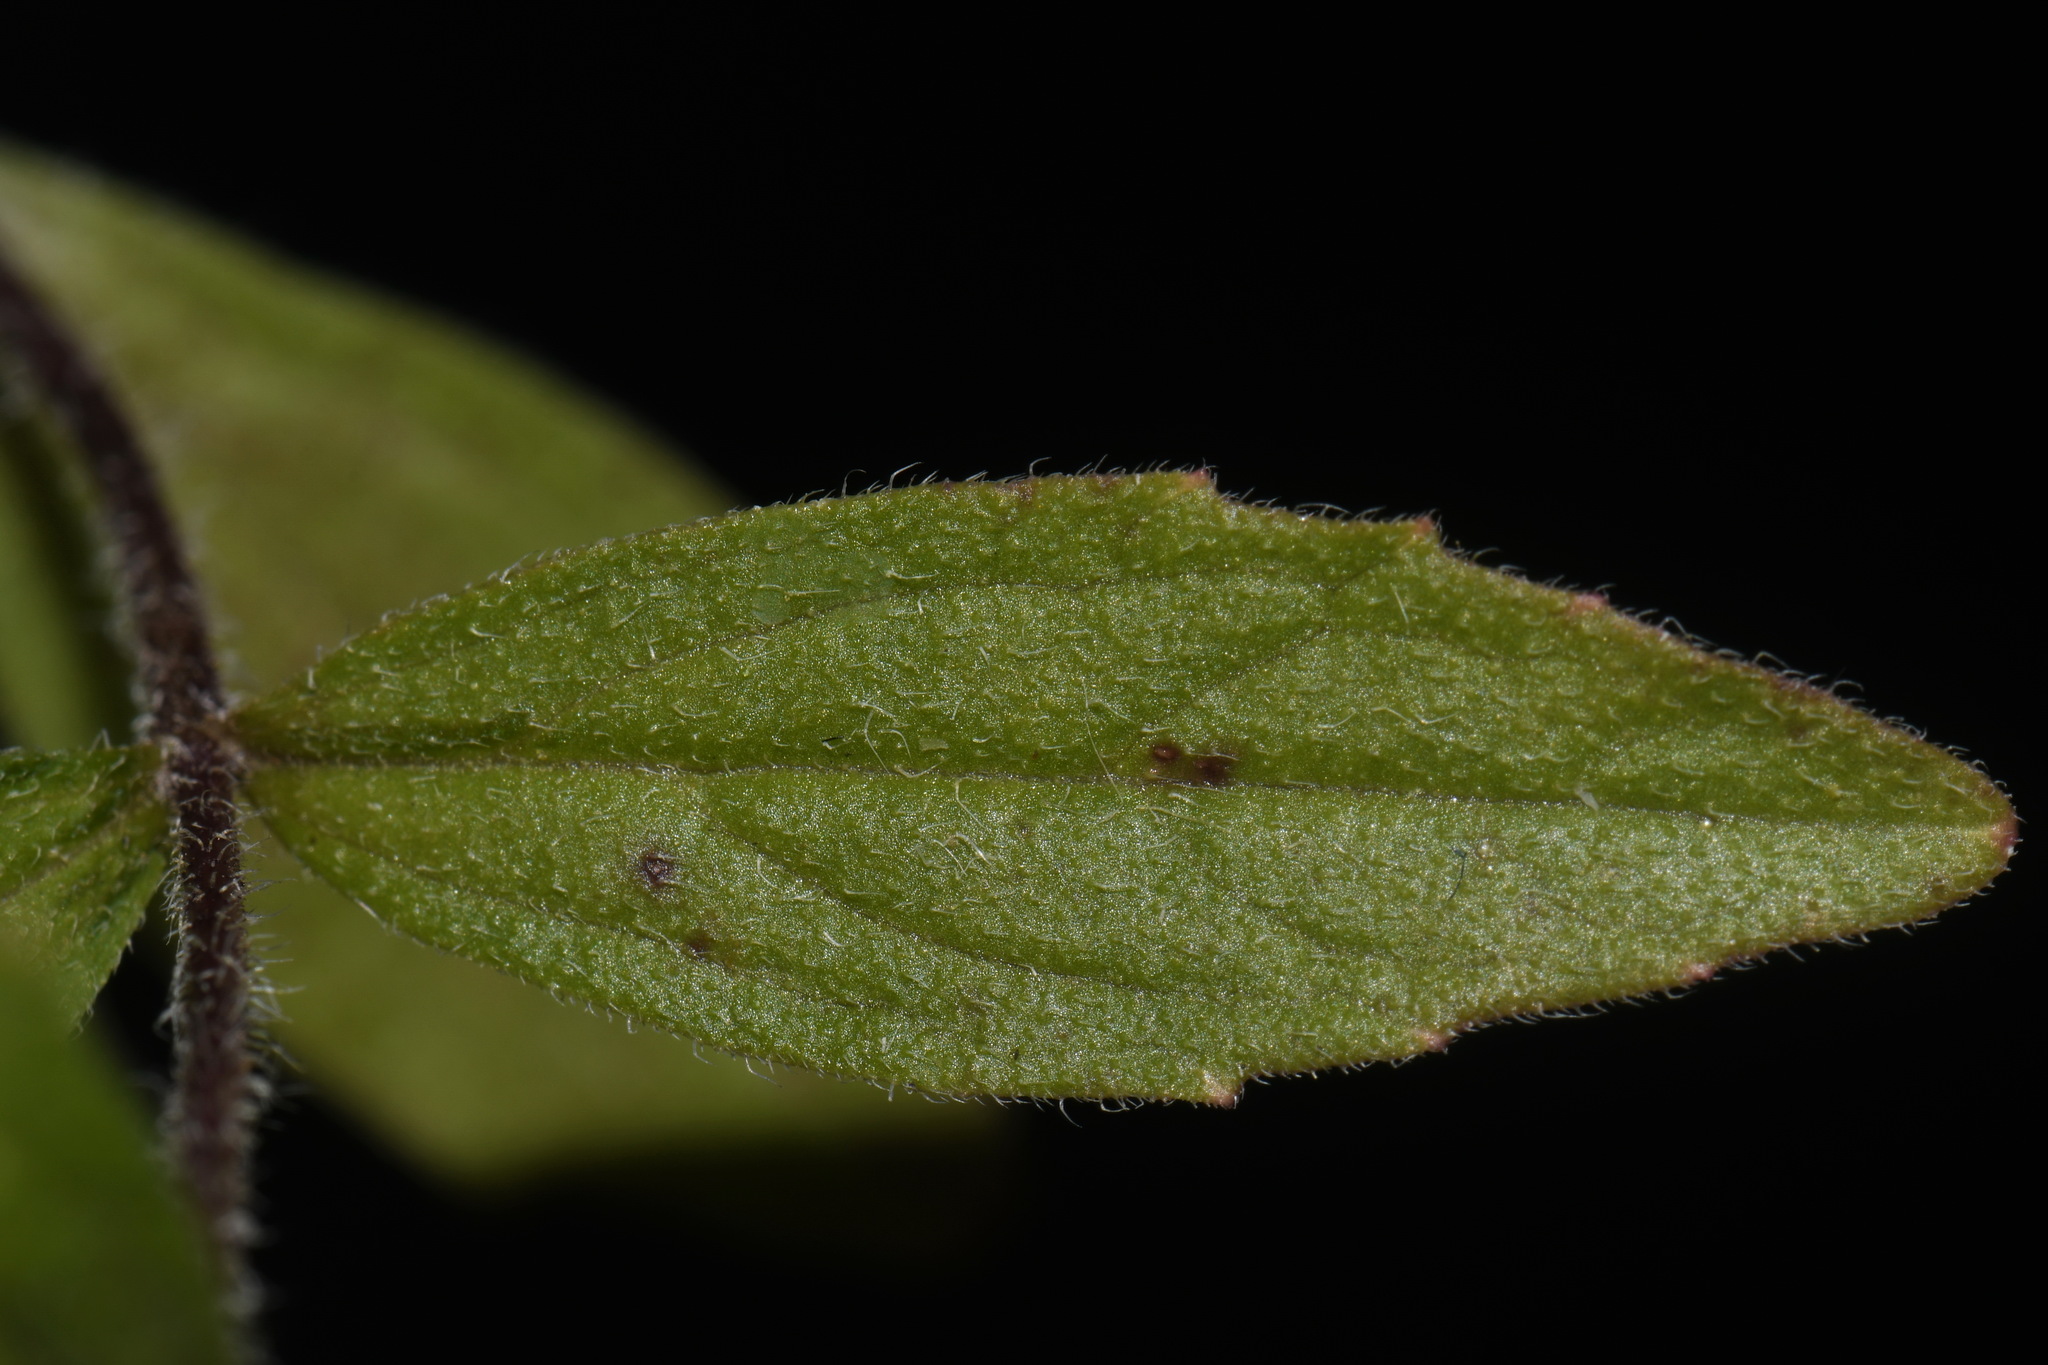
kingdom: Plantae
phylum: Tracheophyta
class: Magnoliopsida
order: Lamiales
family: Orobanchaceae
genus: Buchnera
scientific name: Buchnera americana
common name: American bluehearts
